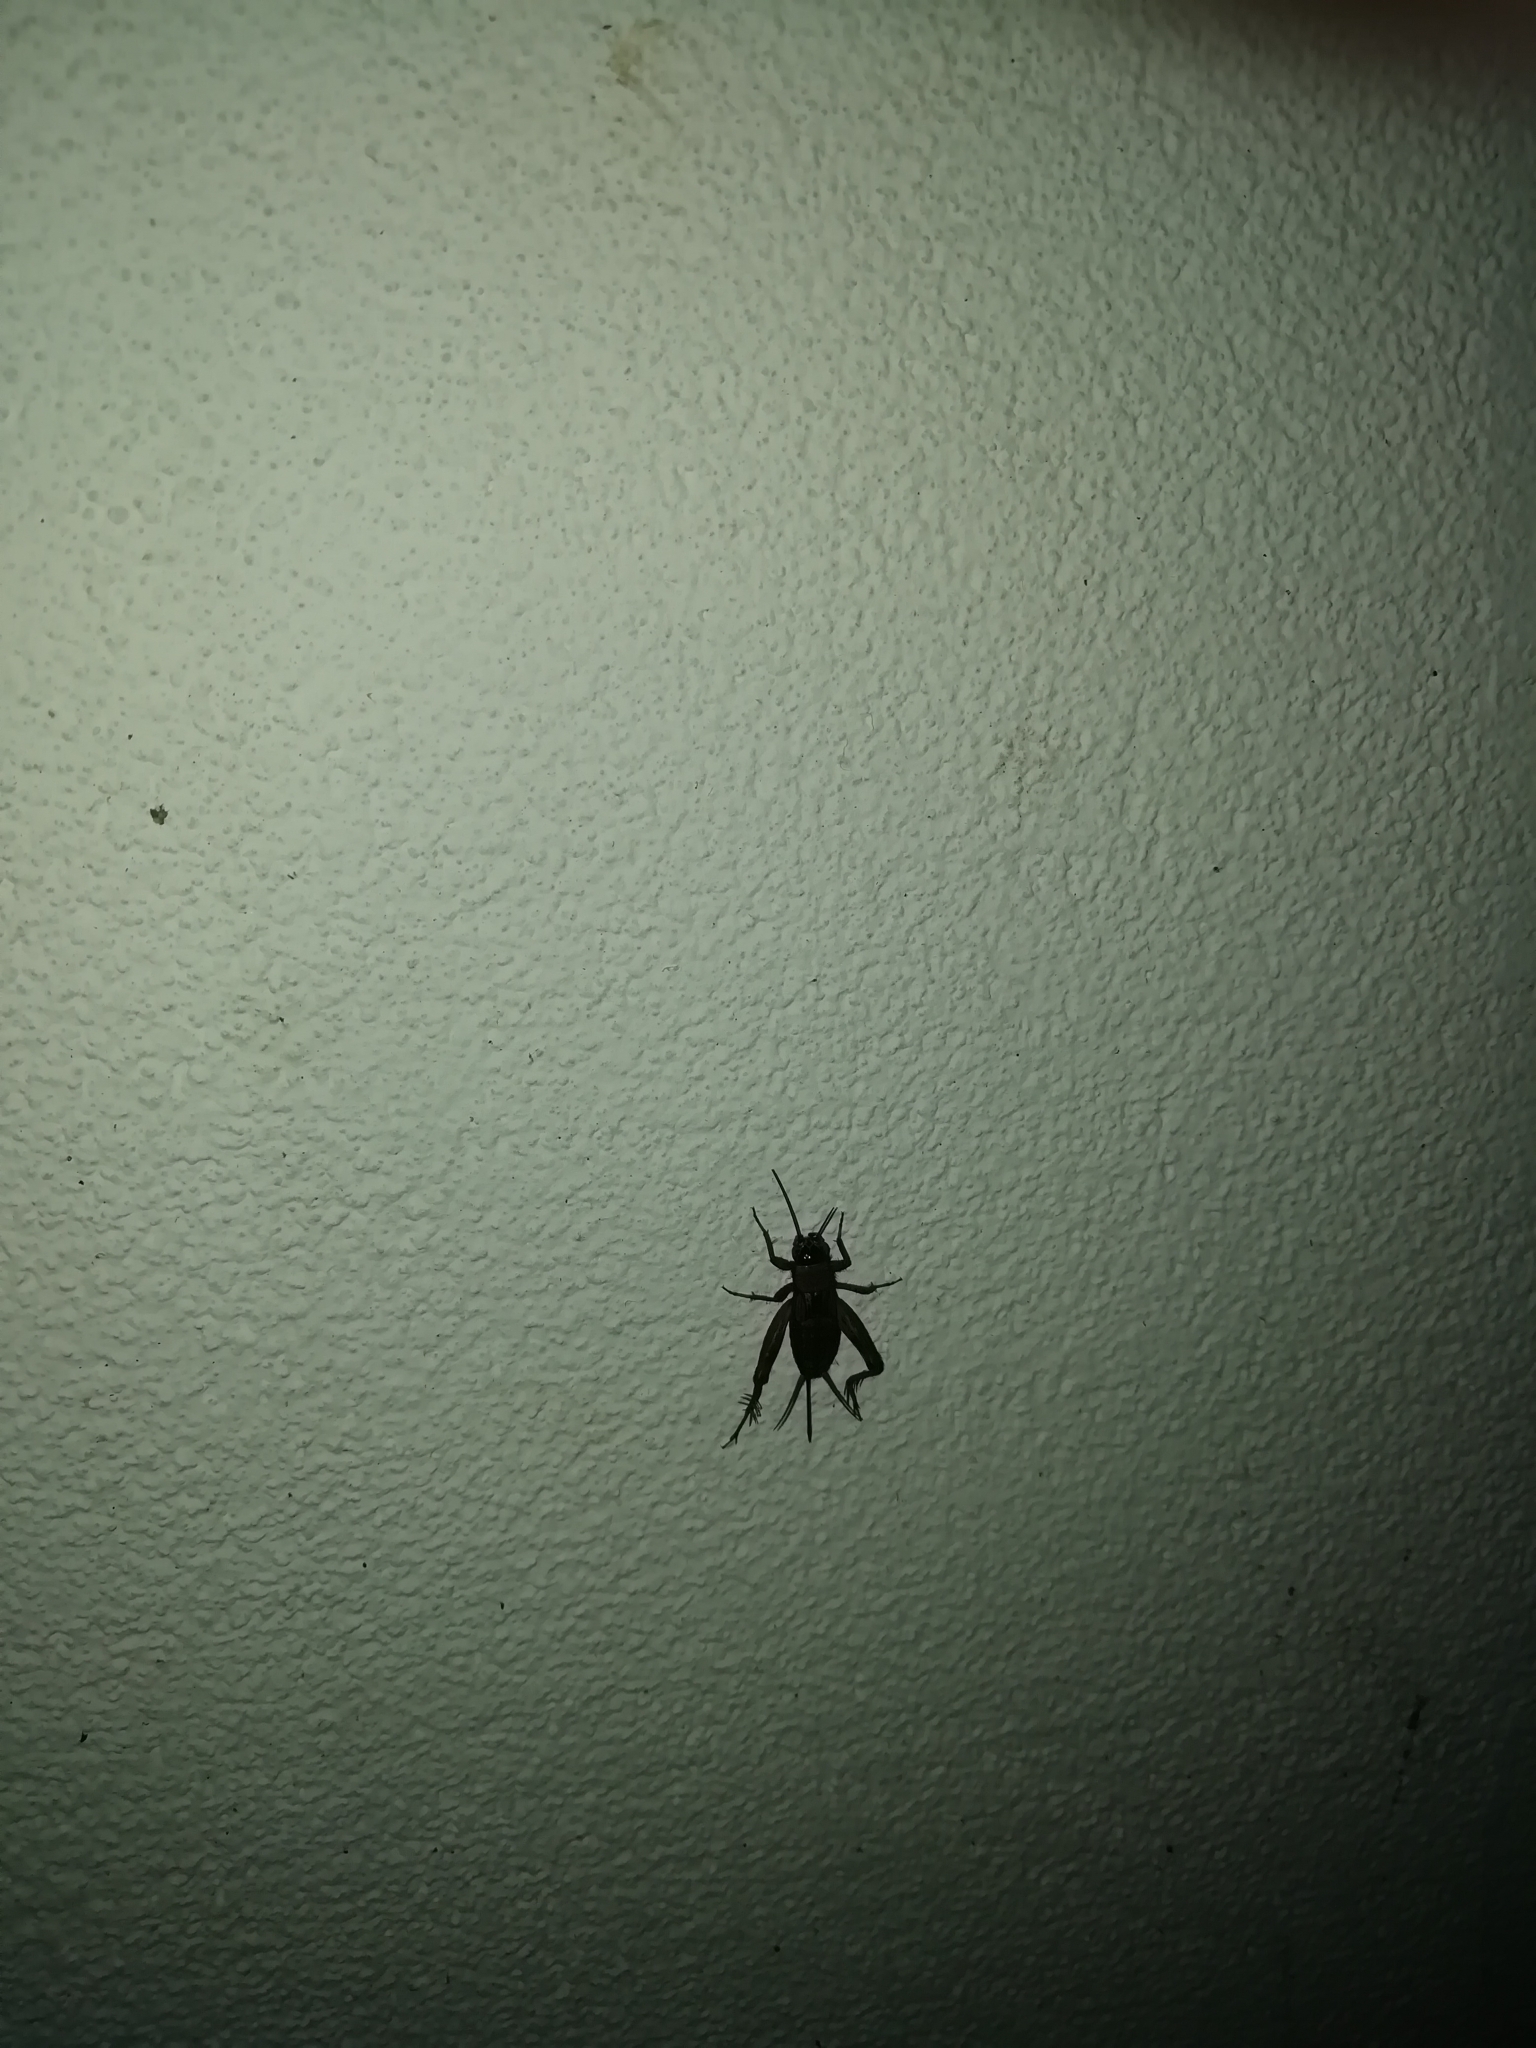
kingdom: Animalia
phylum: Arthropoda
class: Insecta
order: Orthoptera
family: Trigonidiidae
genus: Nemobius
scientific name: Nemobius sylvestris
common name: Wood-cricket
